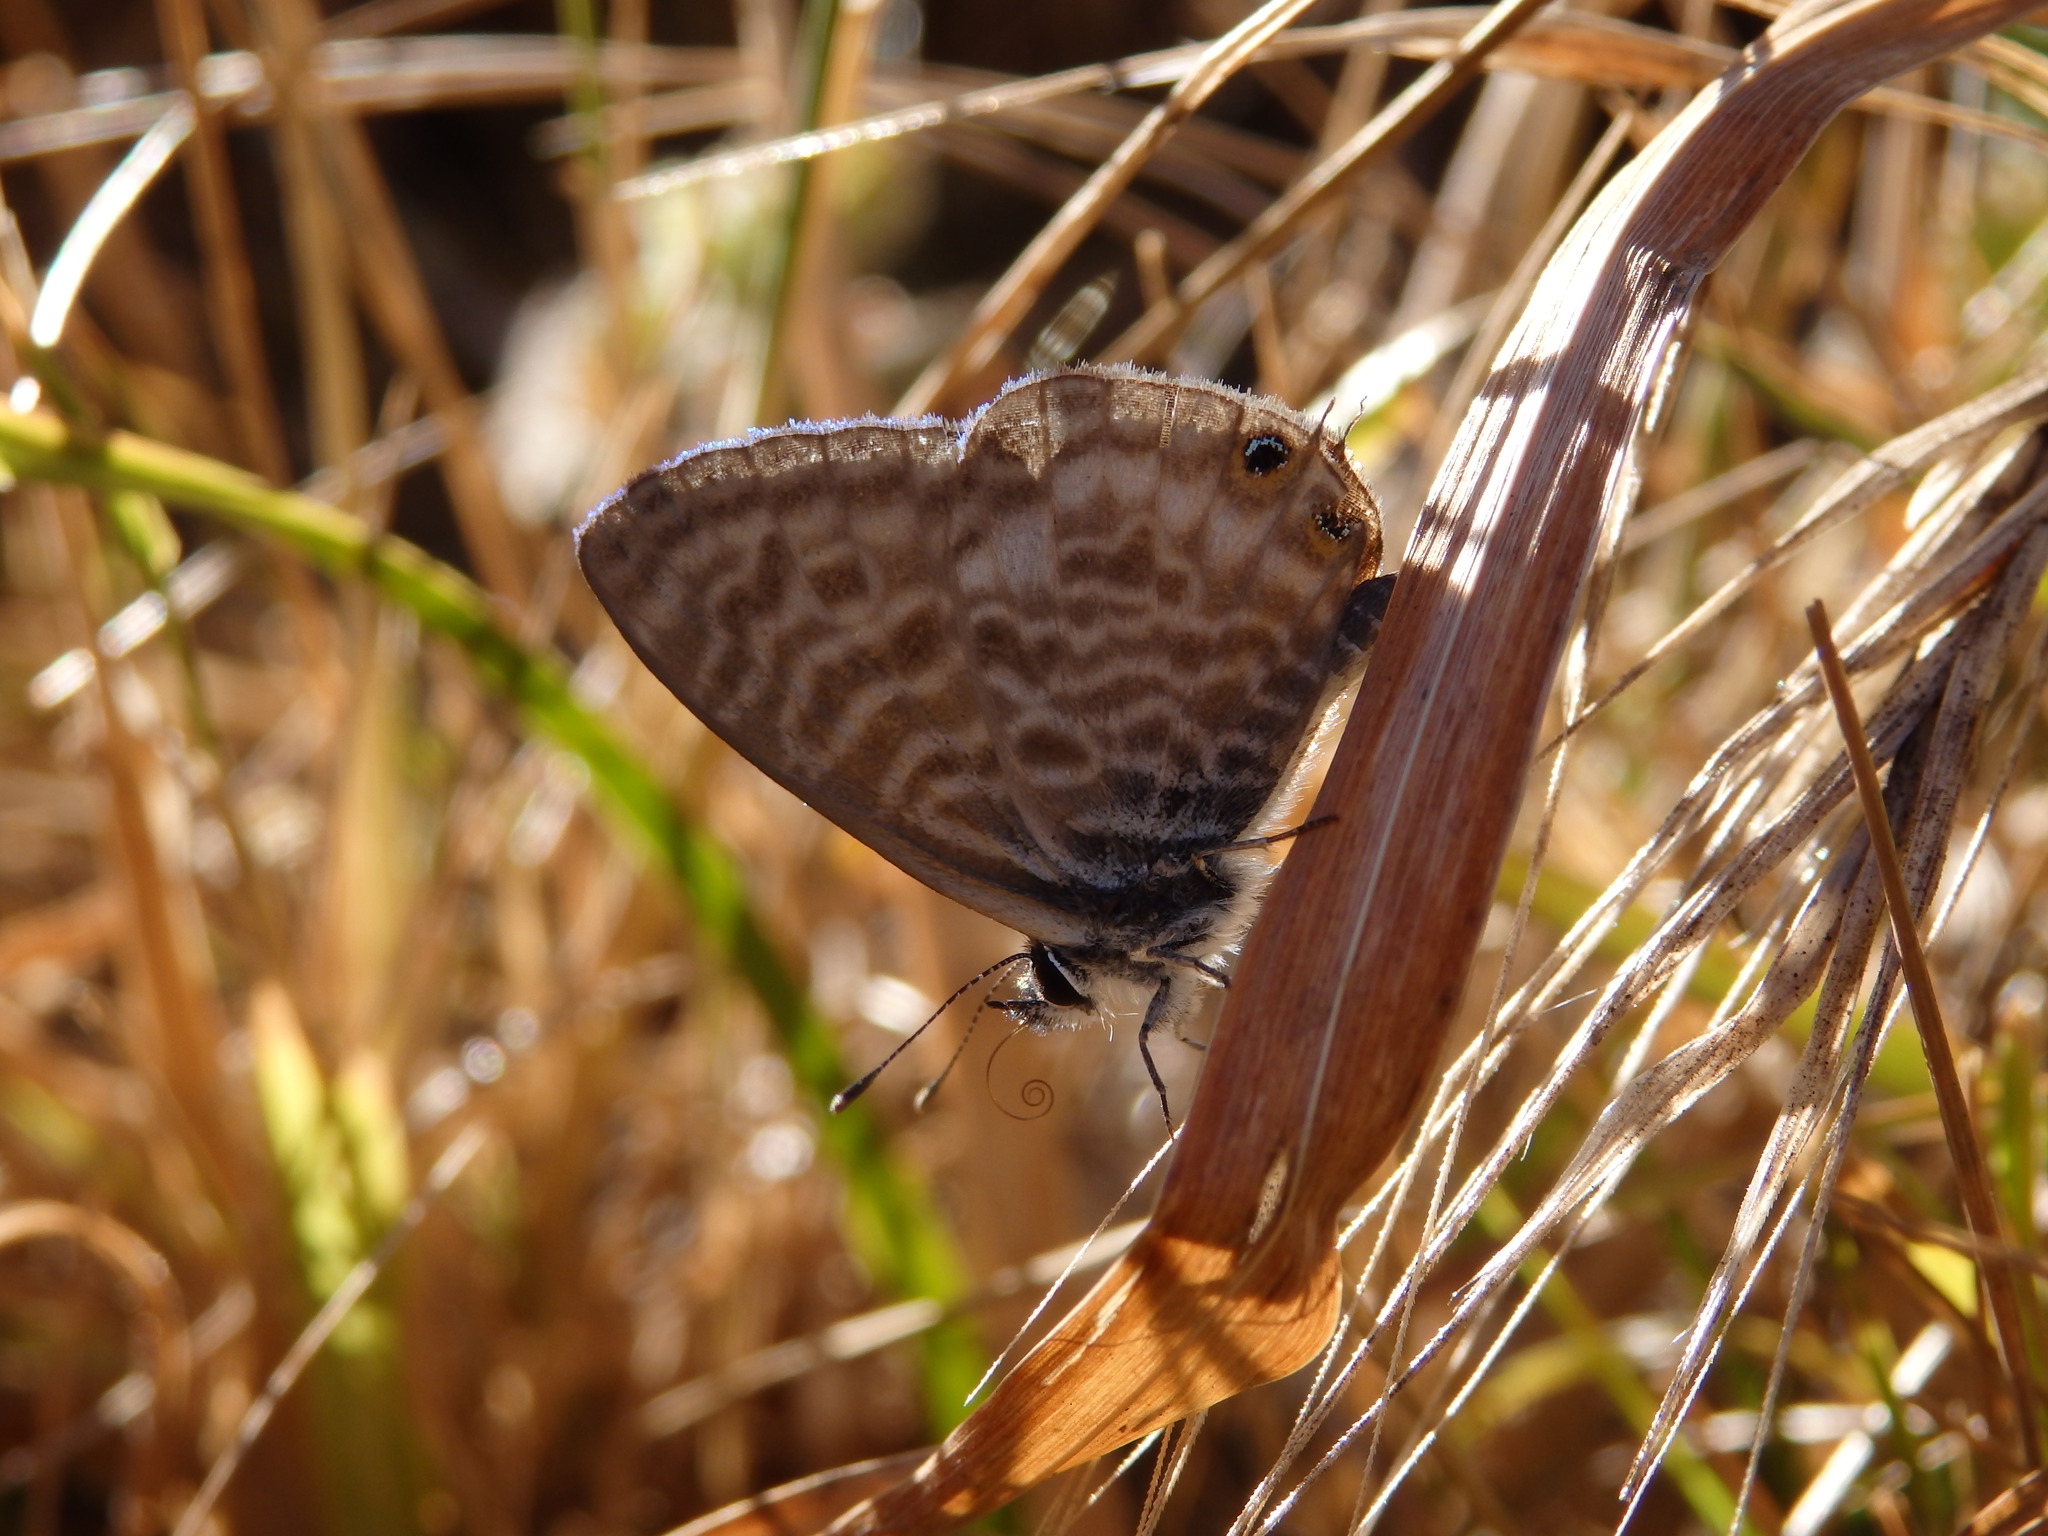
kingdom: Animalia
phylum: Arthropoda
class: Insecta
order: Lepidoptera
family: Lycaenidae
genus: Leptotes
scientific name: Leptotes pirithous
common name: Lang's short-tailed blue
